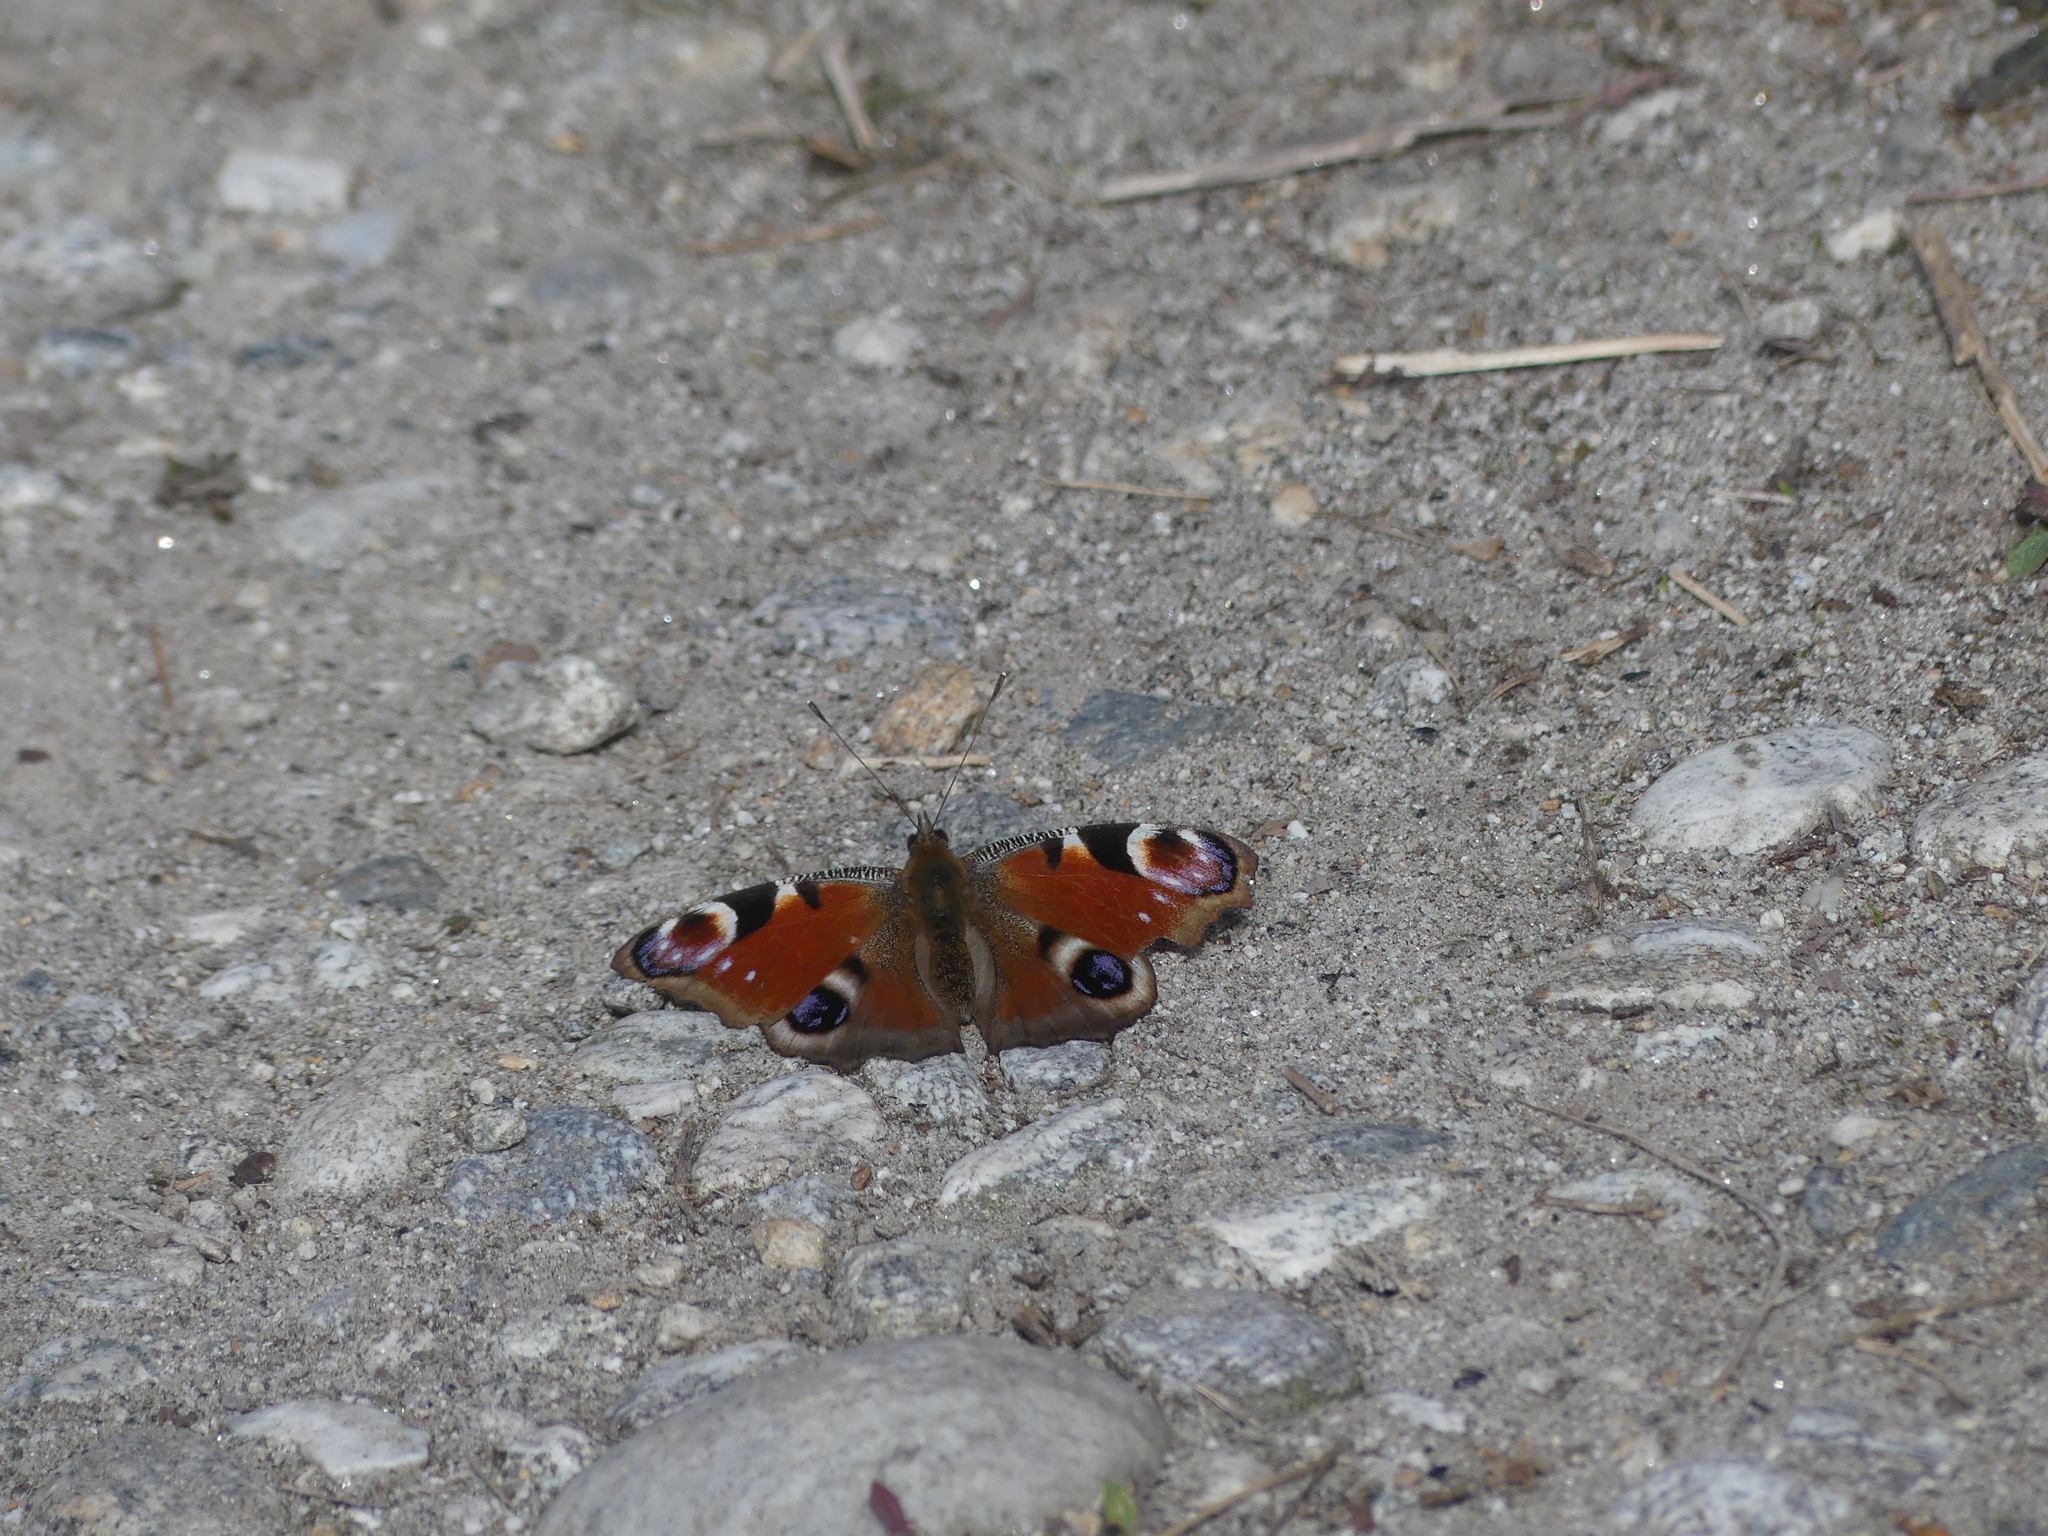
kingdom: Animalia
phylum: Arthropoda
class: Insecta
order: Lepidoptera
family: Nymphalidae
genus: Aglais
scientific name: Aglais io
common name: Peacock
